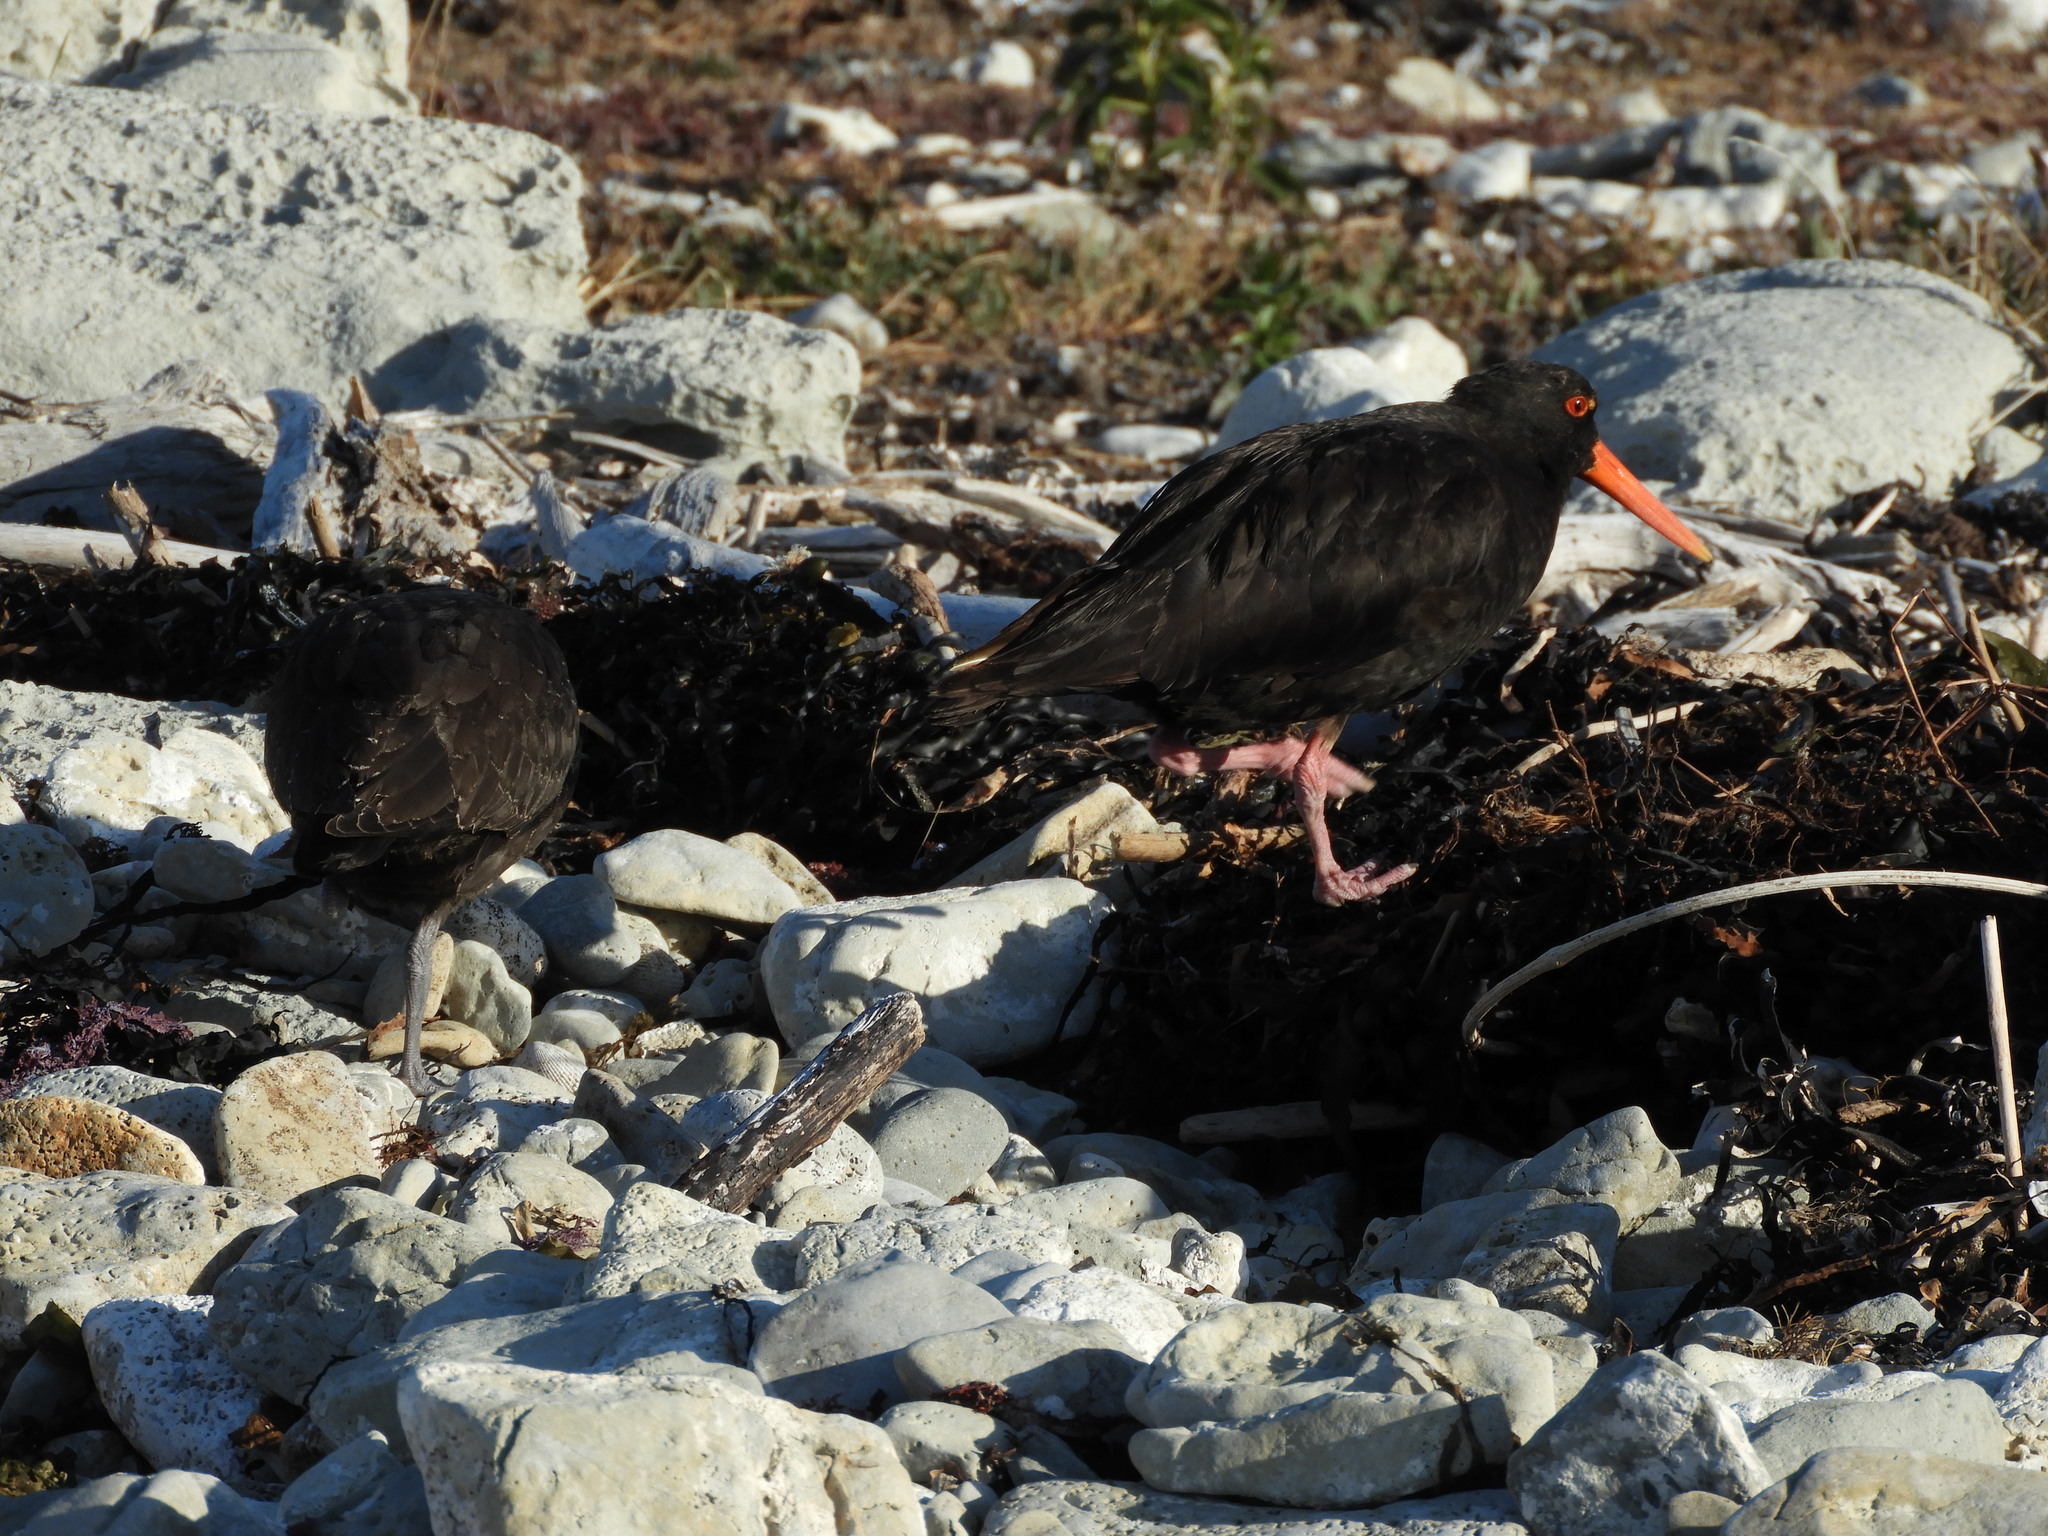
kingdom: Animalia
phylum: Chordata
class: Aves
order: Charadriiformes
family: Haematopodidae
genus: Haematopus
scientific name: Haematopus unicolor
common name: Variable oystercatcher
